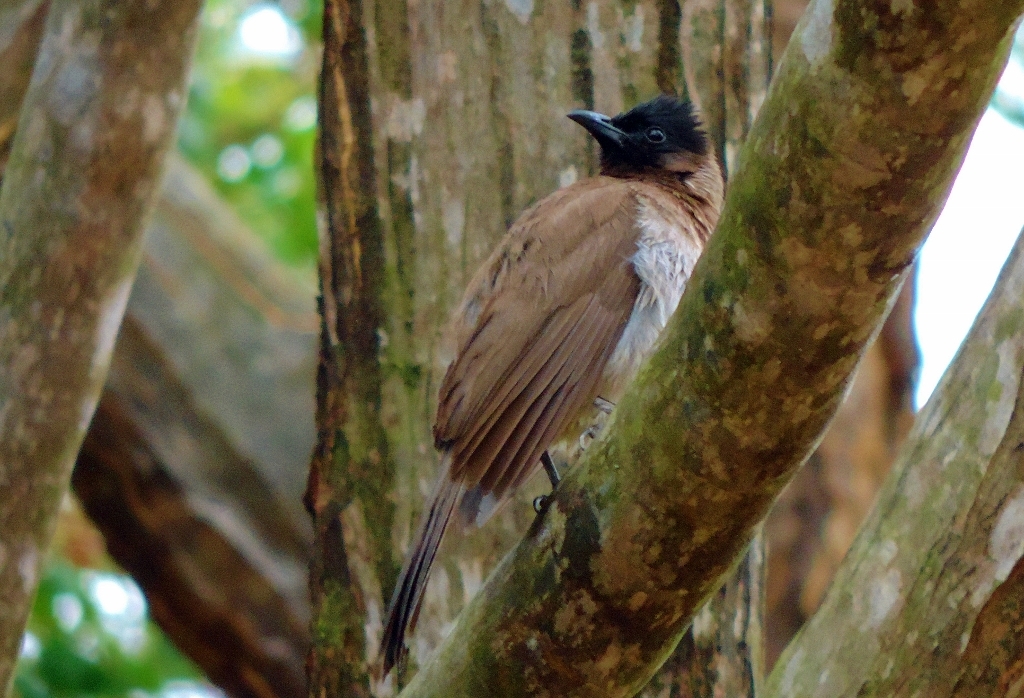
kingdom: Animalia
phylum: Chordata
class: Aves
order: Passeriformes
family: Pycnonotidae
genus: Pycnonotus
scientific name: Pycnonotus barbatus
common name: Common bulbul
